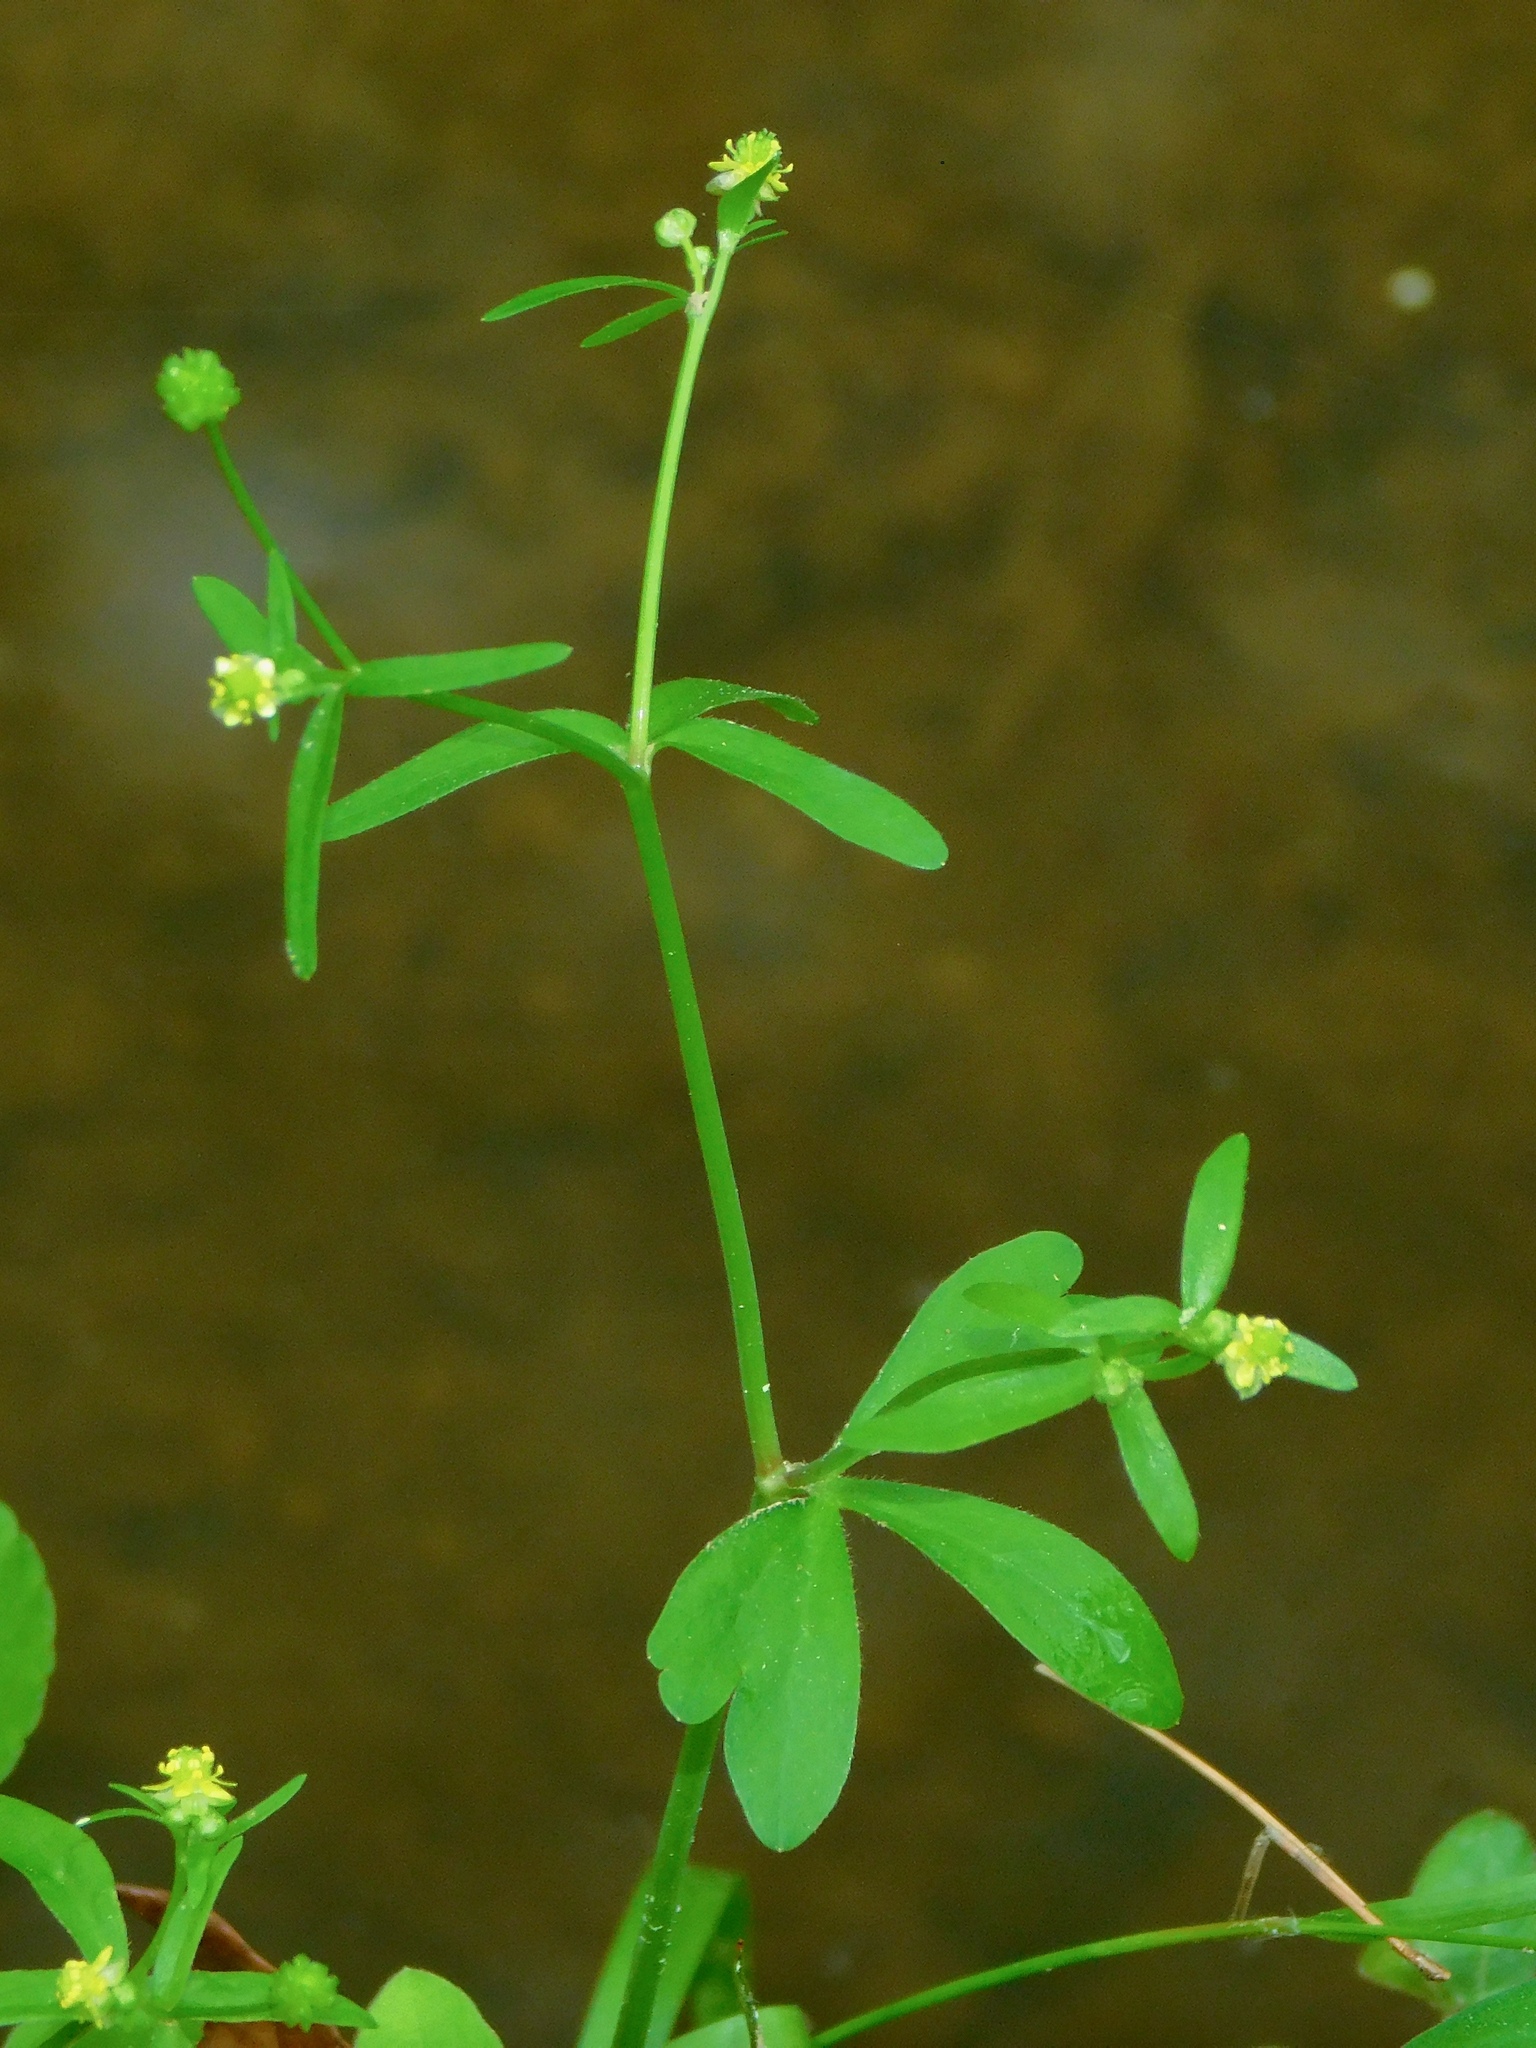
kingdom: Plantae
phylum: Tracheophyta
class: Magnoliopsida
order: Ranunculales
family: Ranunculaceae
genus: Ranunculus
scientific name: Ranunculus abortivus
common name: Early wood buttercup
